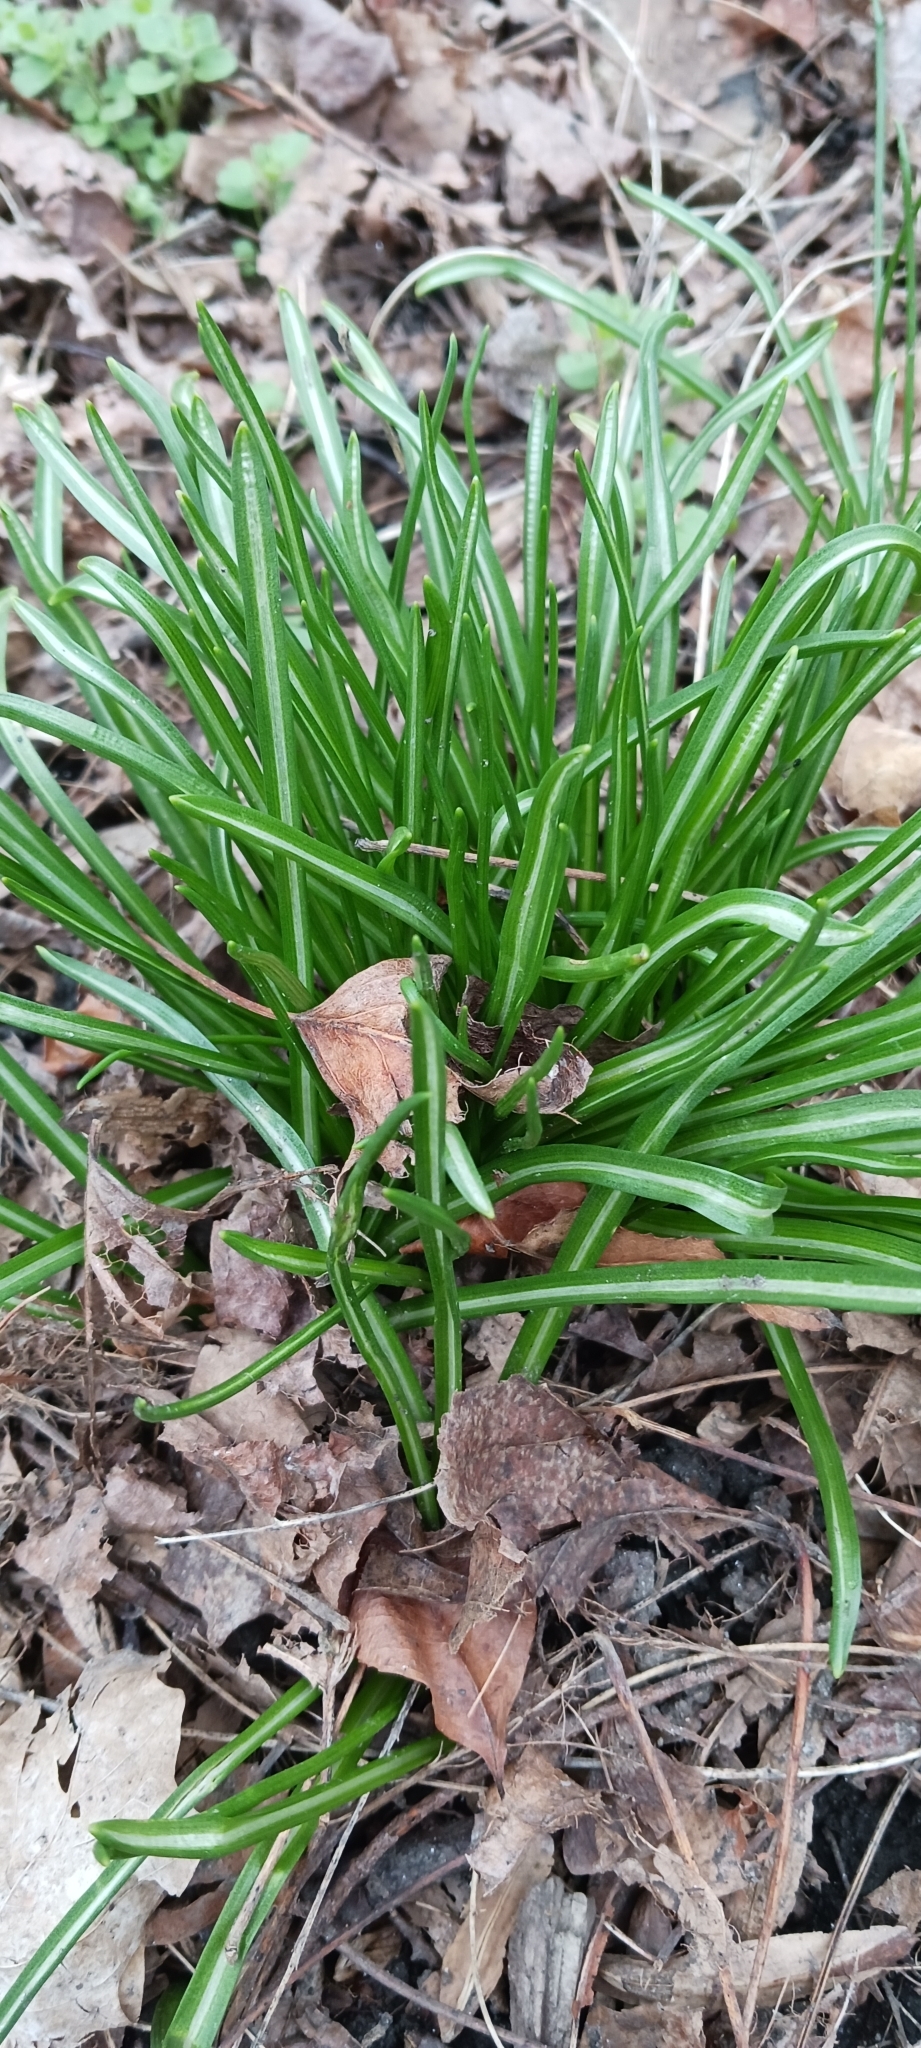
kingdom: Plantae
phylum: Tracheophyta
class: Liliopsida
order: Asparagales
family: Asparagaceae
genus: Ornithogalum
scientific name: Ornithogalum umbellatum
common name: Garden star-of-bethlehem
